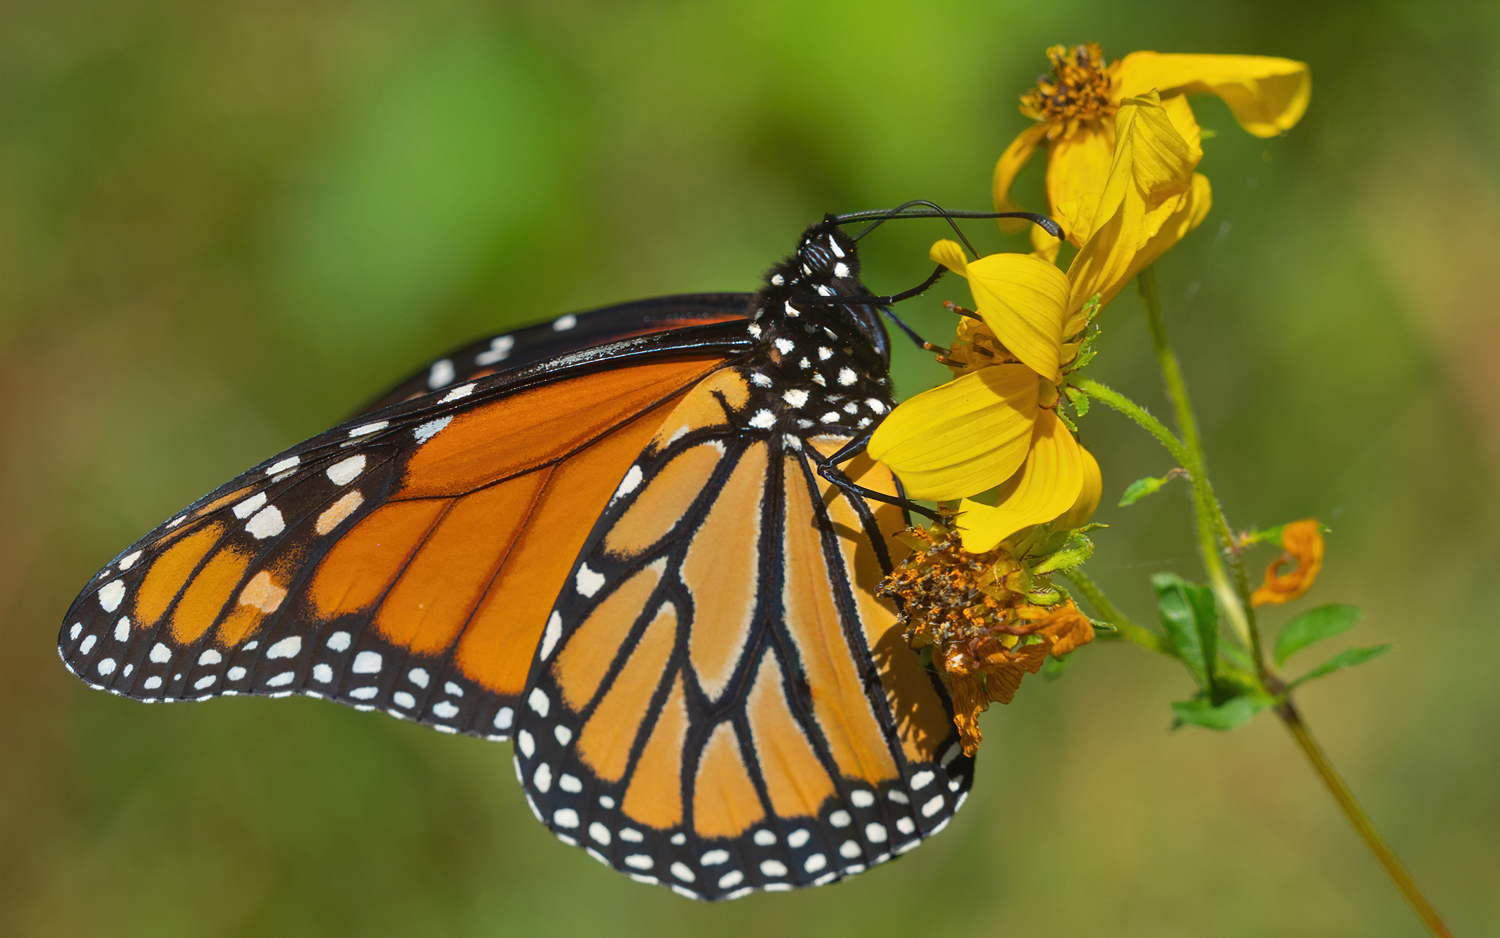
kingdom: Animalia
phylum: Arthropoda
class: Insecta
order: Lepidoptera
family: Nymphalidae
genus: Danaus
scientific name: Danaus plexippus
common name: Monarch
